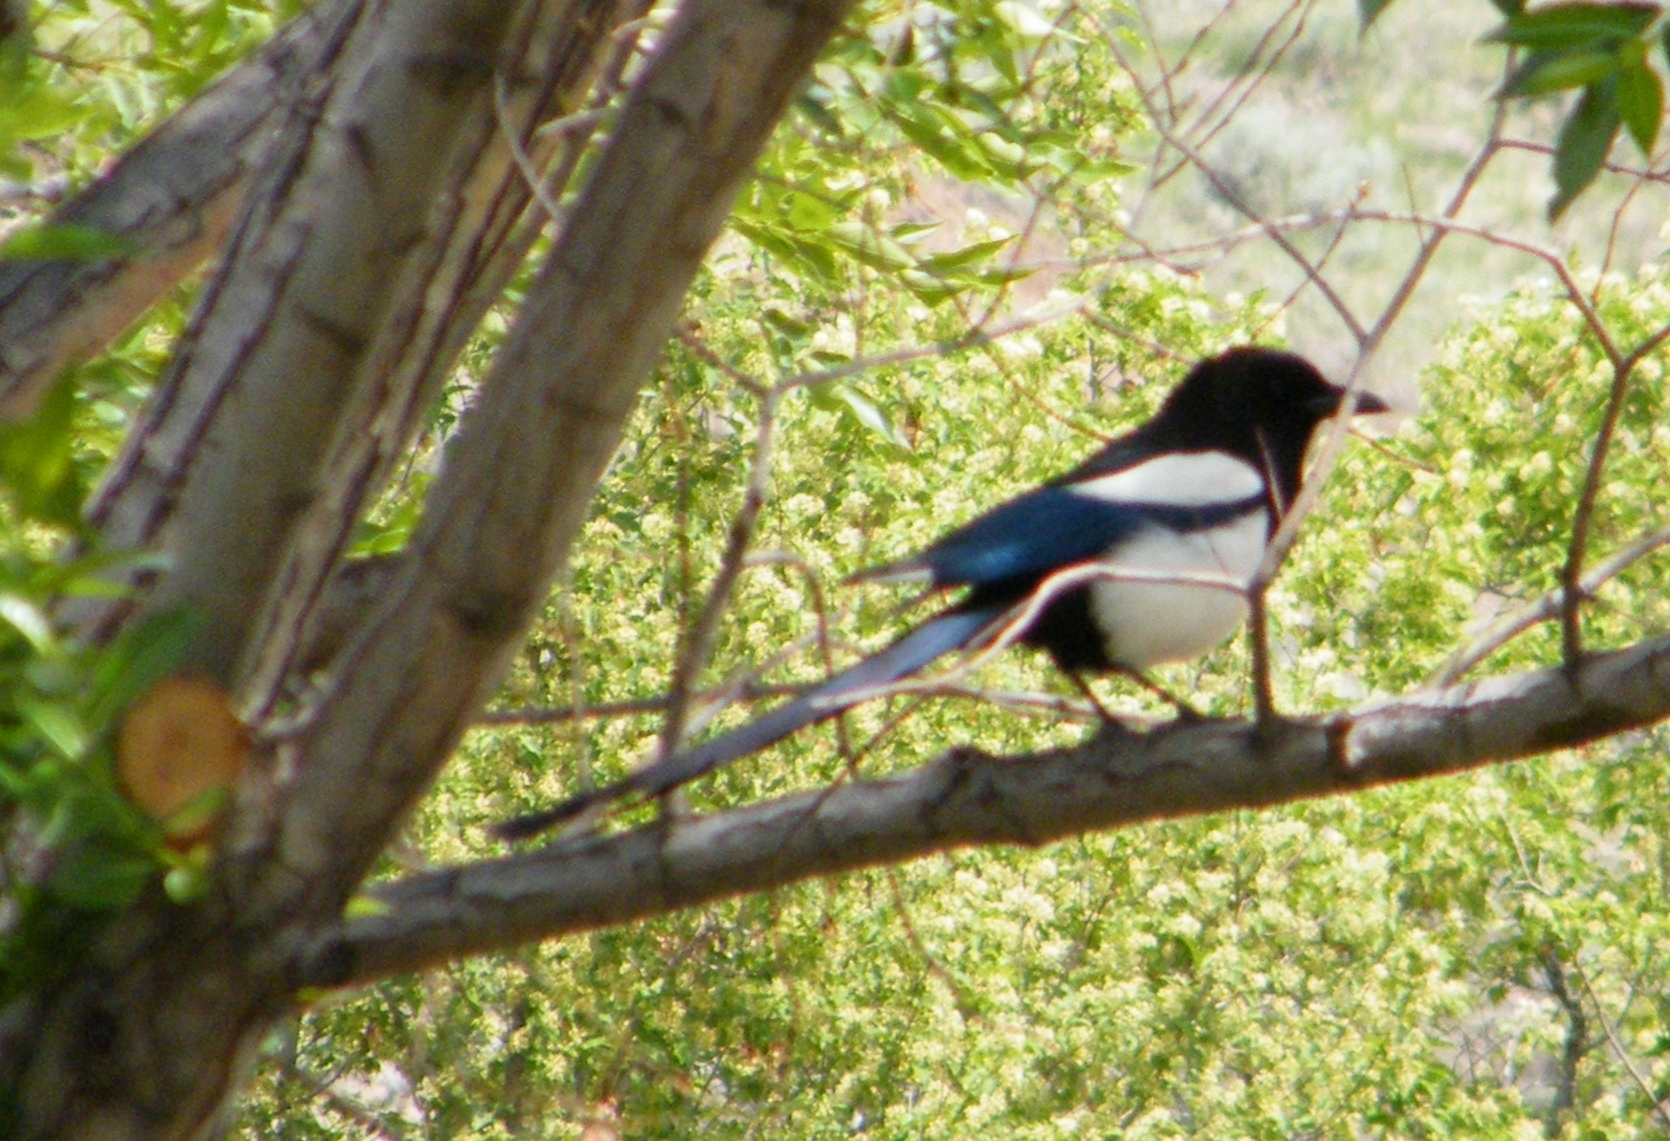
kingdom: Animalia
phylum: Chordata
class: Aves
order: Passeriformes
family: Corvidae
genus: Pica
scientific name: Pica hudsonia
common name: Black-billed magpie
